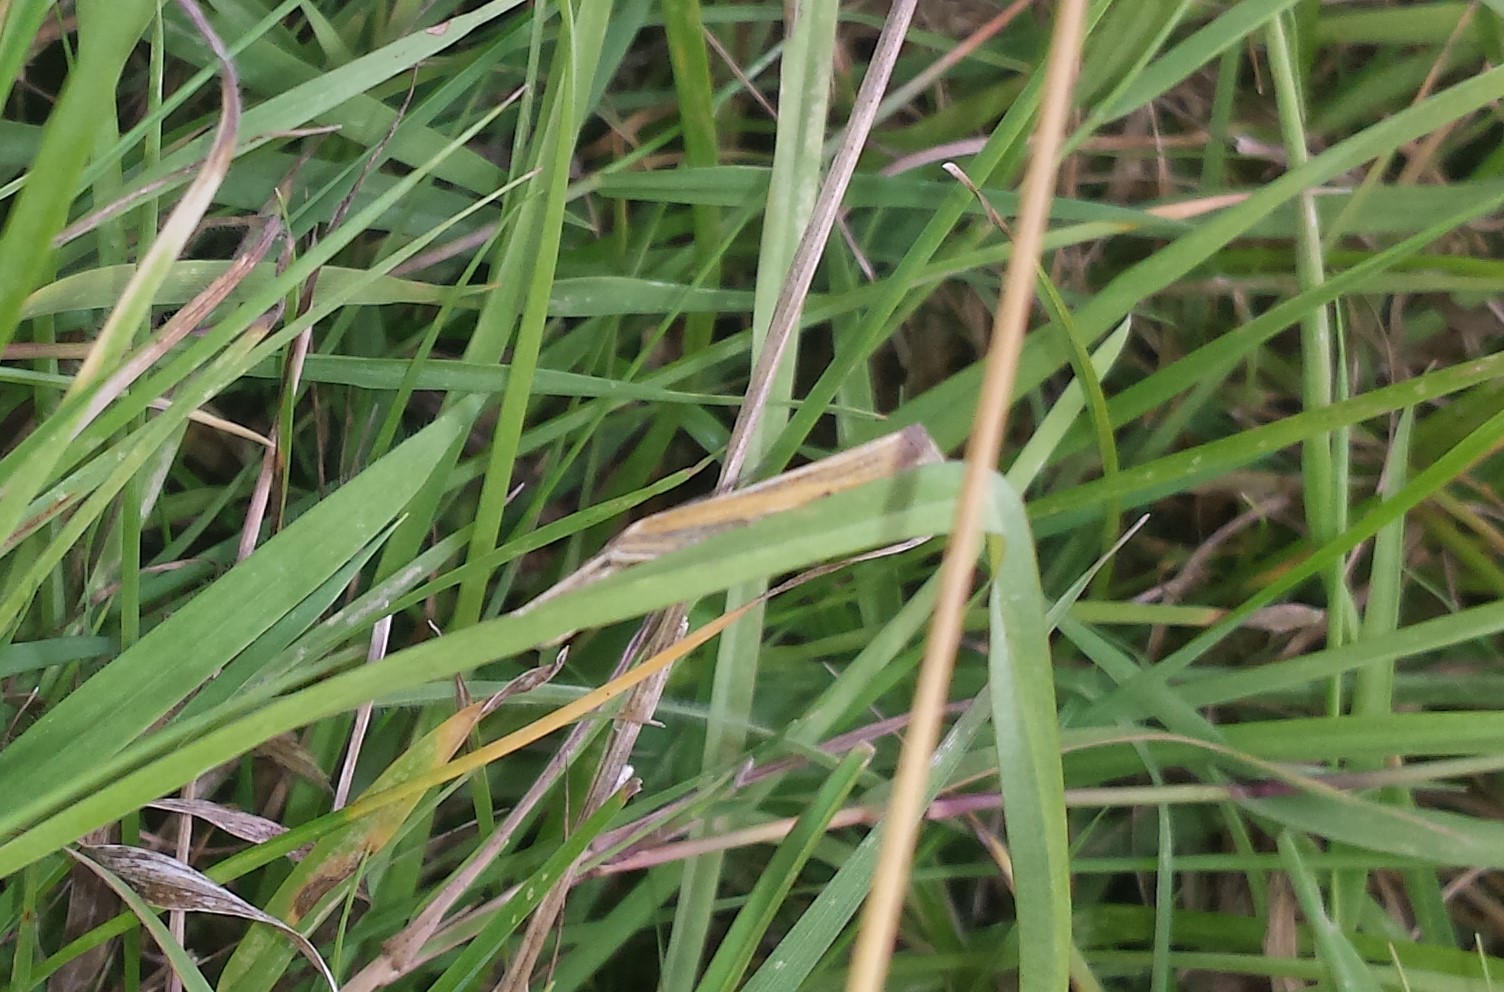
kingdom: Animalia
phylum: Arthropoda
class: Insecta
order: Lepidoptera
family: Crambidae
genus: Agriphila
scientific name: Agriphila tristellus
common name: Common grass-veneer
